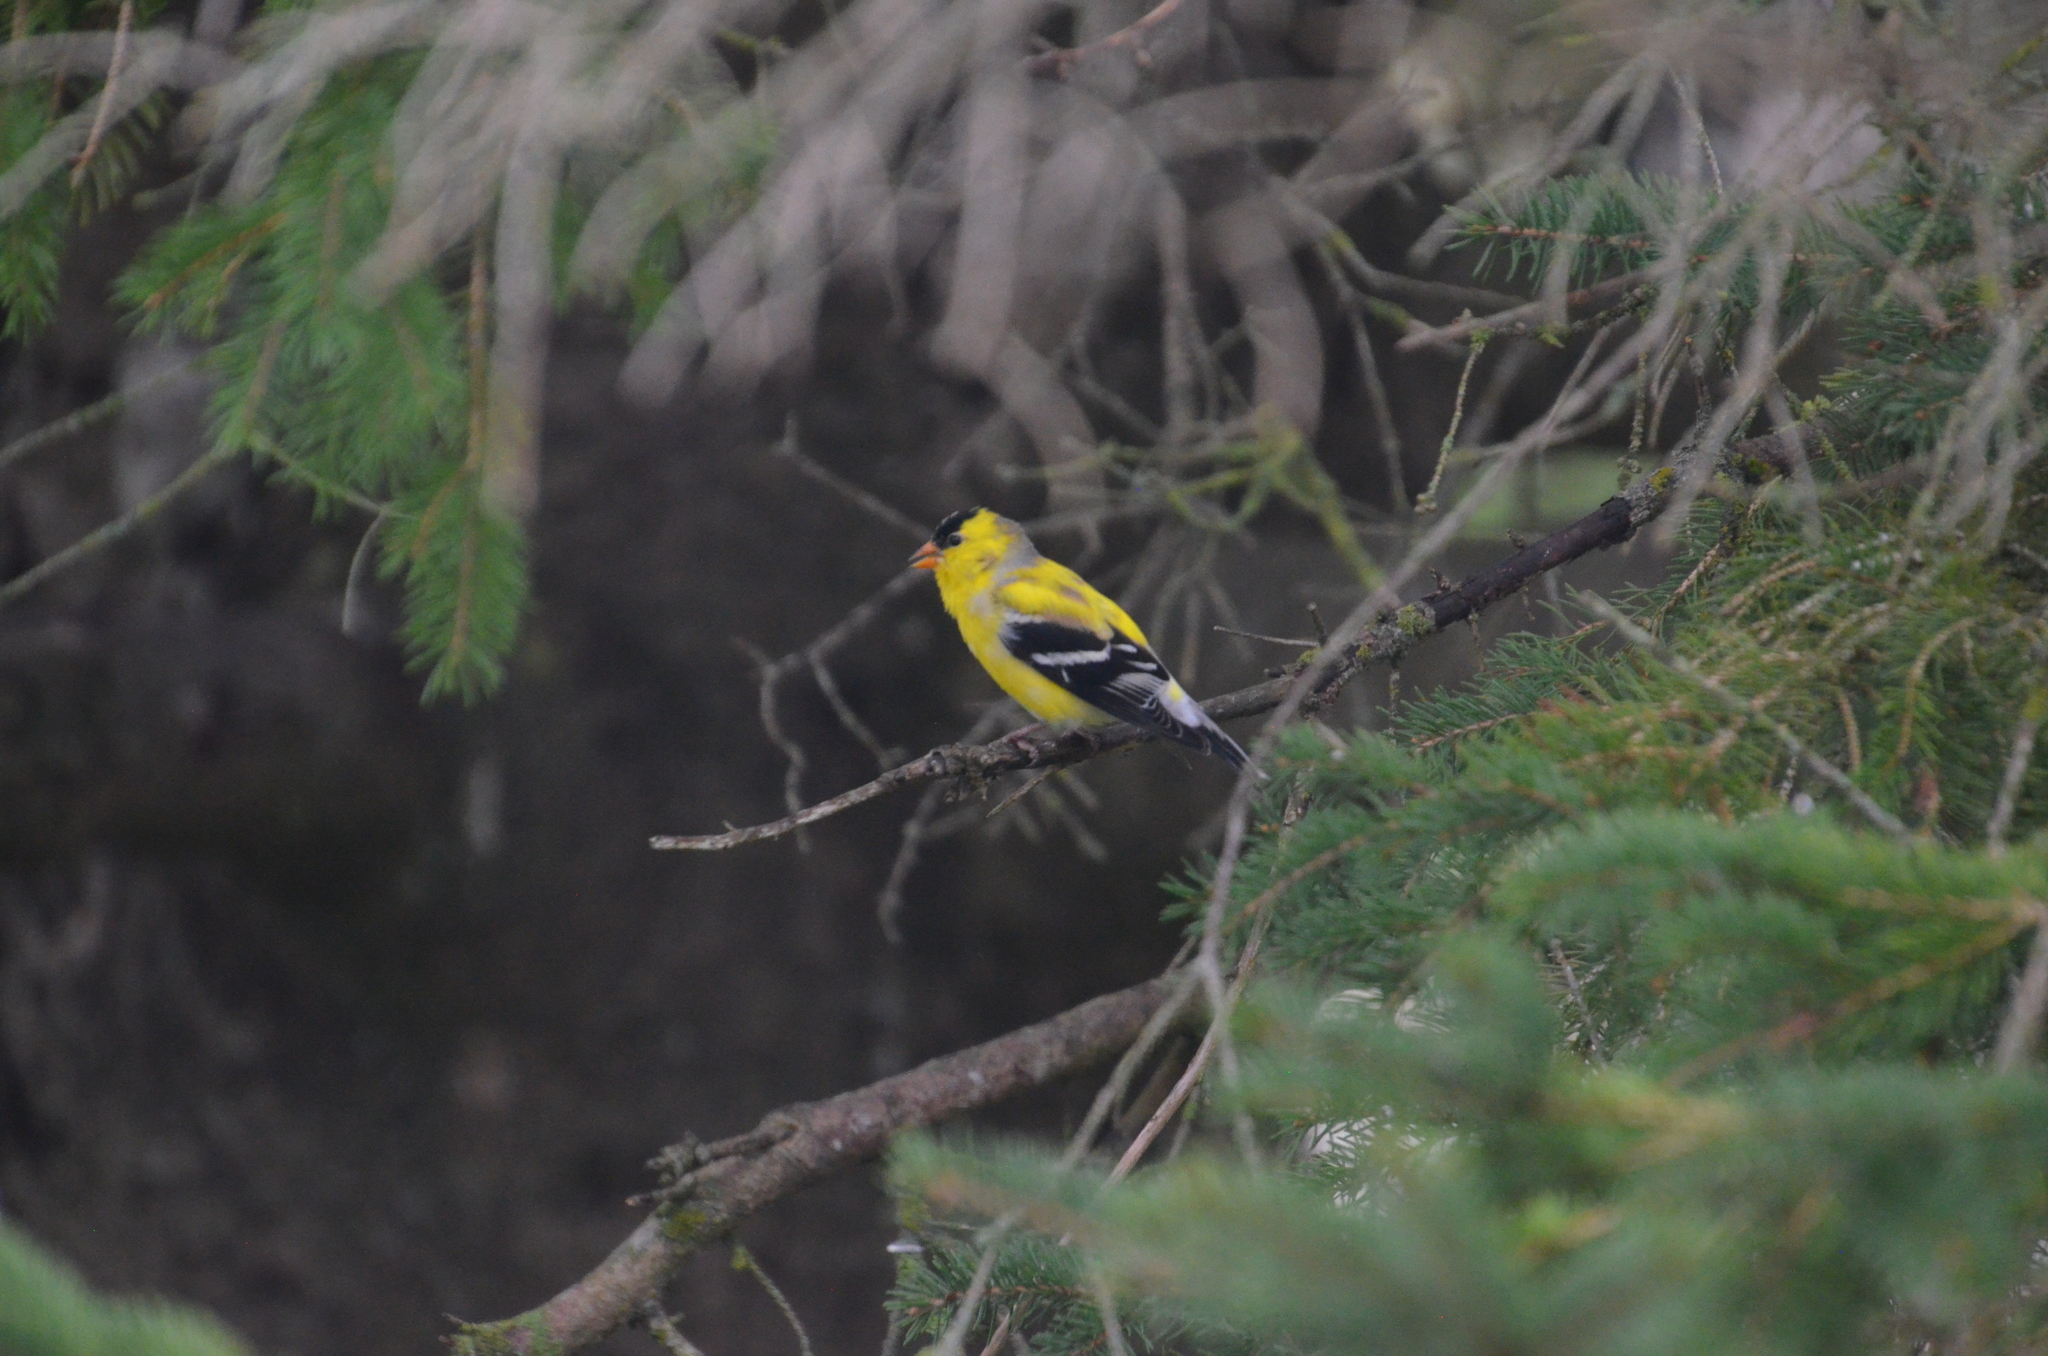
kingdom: Animalia
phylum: Chordata
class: Aves
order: Passeriformes
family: Fringillidae
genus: Spinus
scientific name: Spinus tristis
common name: American goldfinch
